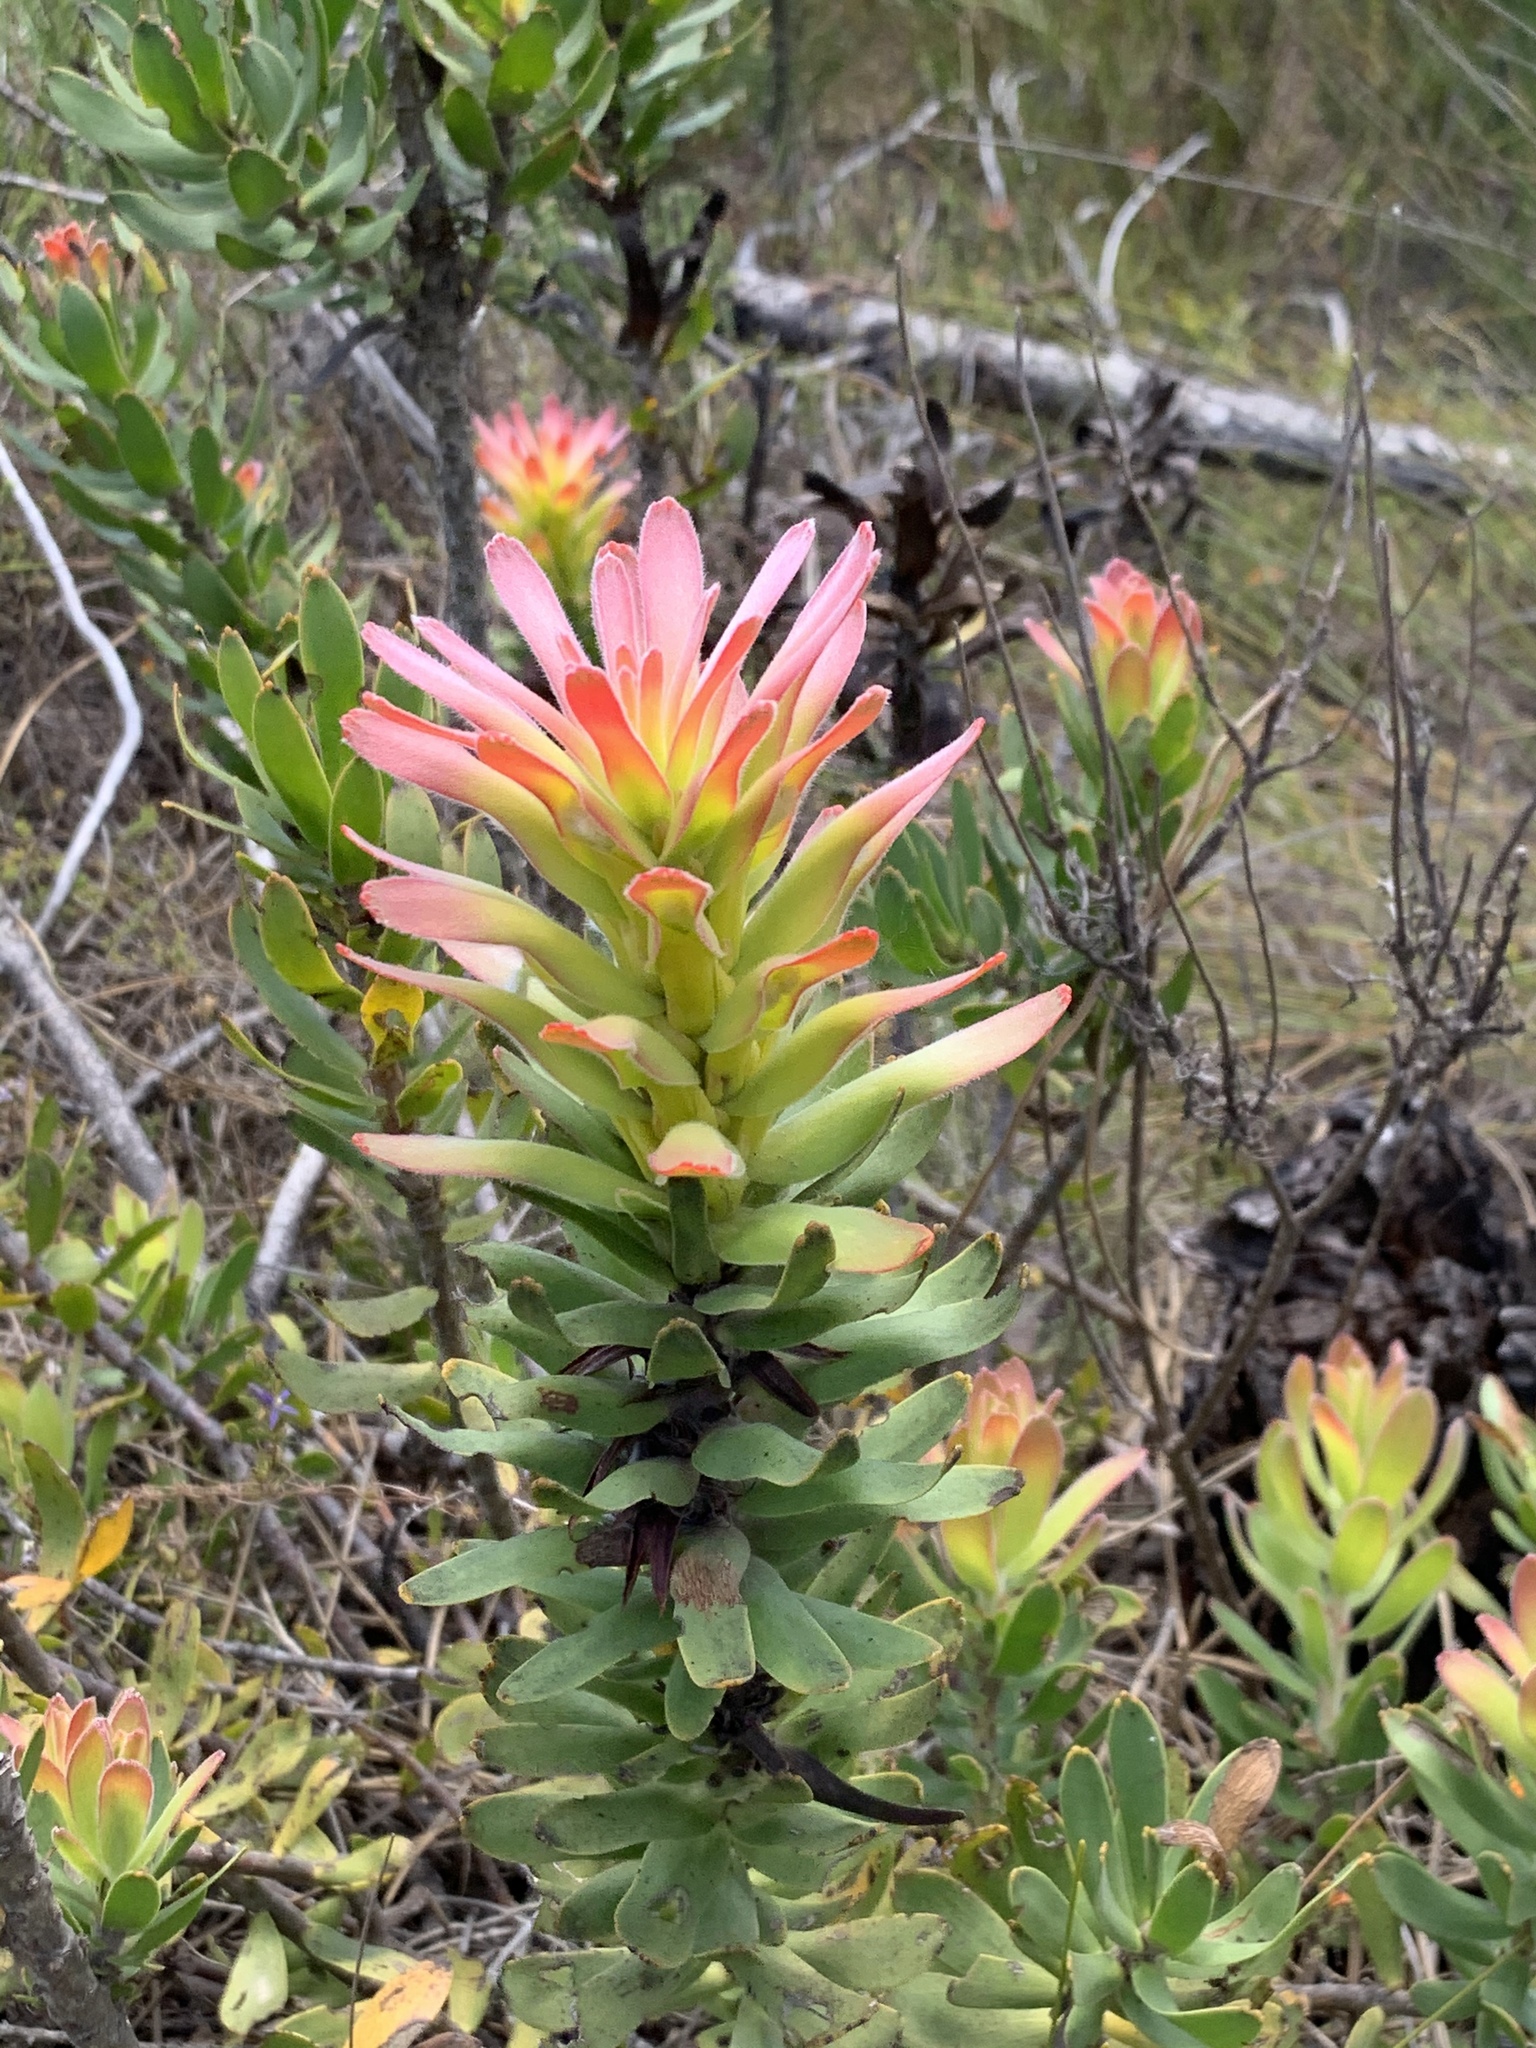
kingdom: Plantae
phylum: Tracheophyta
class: Magnoliopsida
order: Proteales
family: Proteaceae
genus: Mimetes
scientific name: Mimetes cucullatus
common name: Common pagoda
